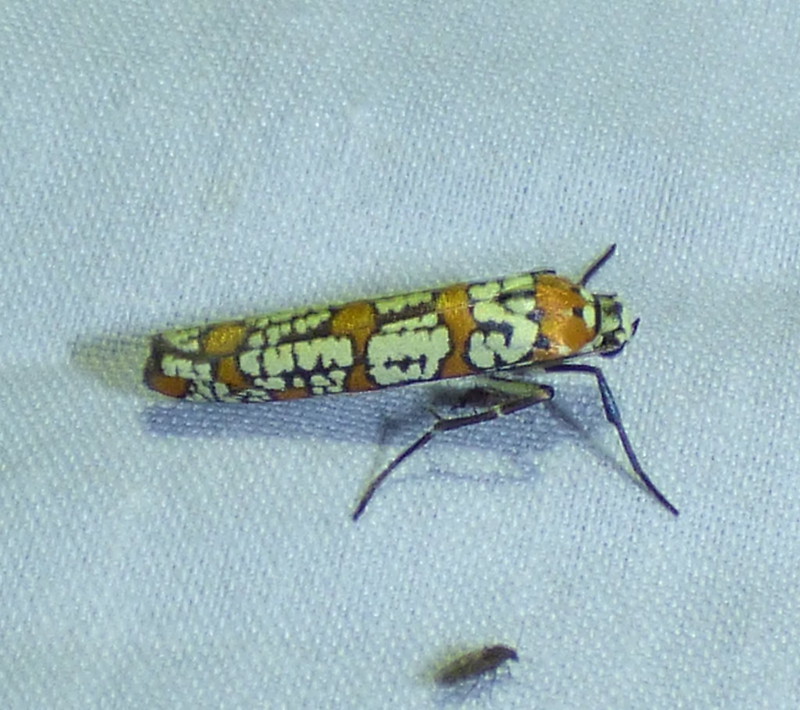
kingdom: Animalia
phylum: Arthropoda
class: Insecta
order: Lepidoptera
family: Attevidae
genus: Atteva
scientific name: Atteva punctella
